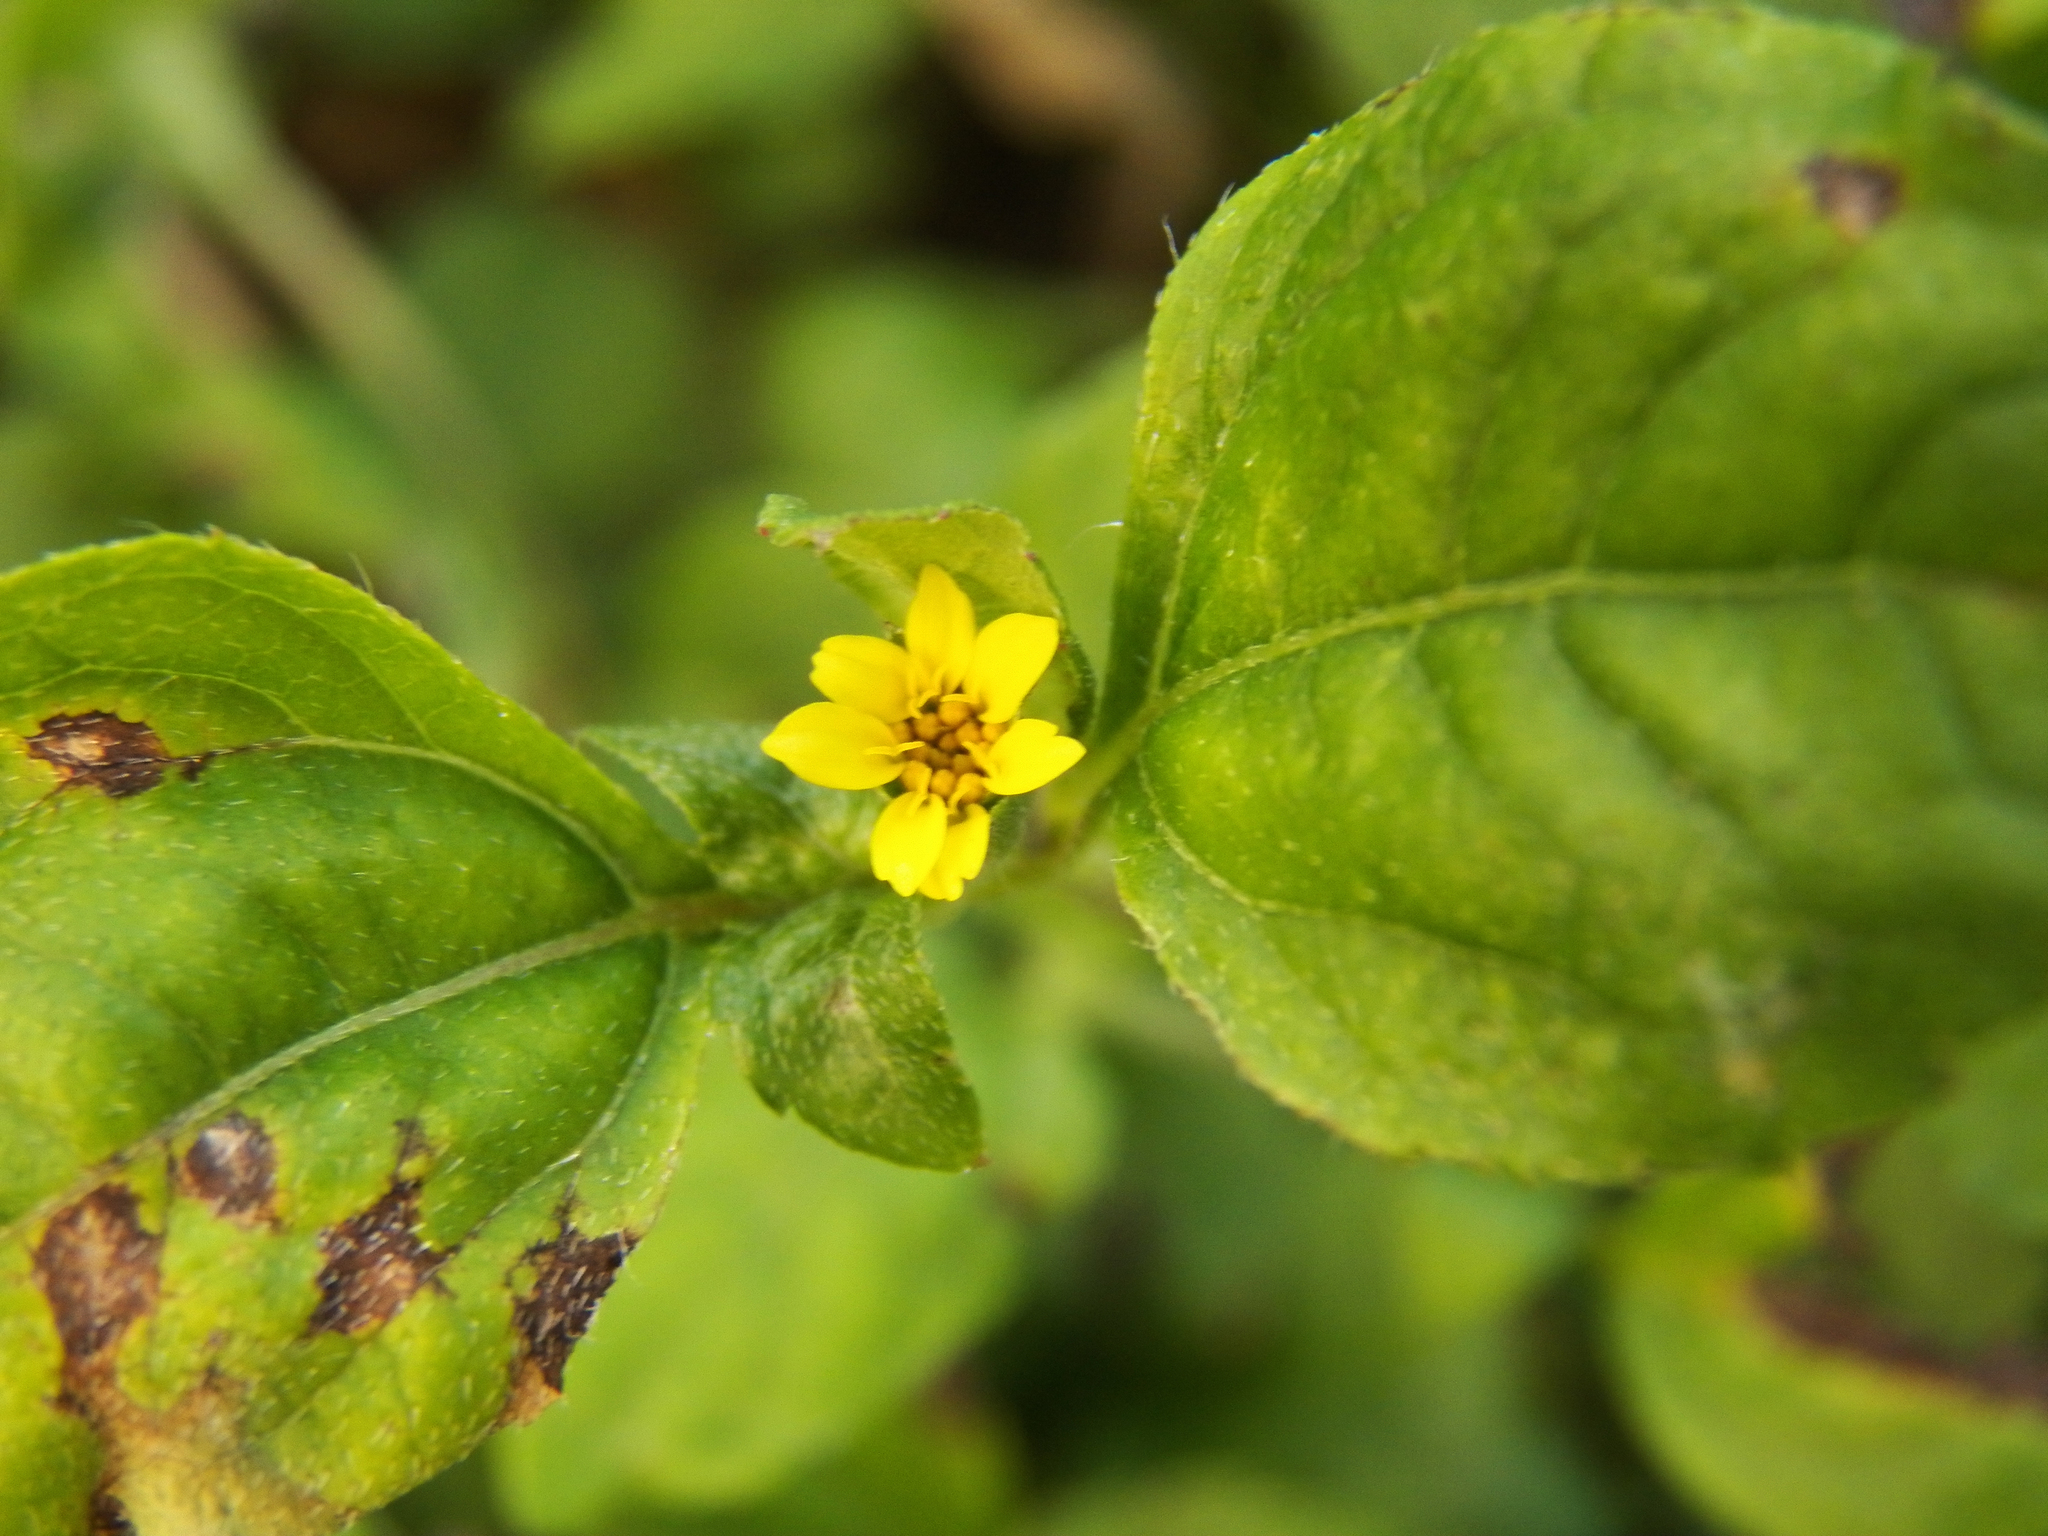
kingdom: Plantae
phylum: Tracheophyta
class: Magnoliopsida
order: Asterales
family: Asteraceae
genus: Calyptocarpus
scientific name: Calyptocarpus vialis
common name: Straggler daisy
